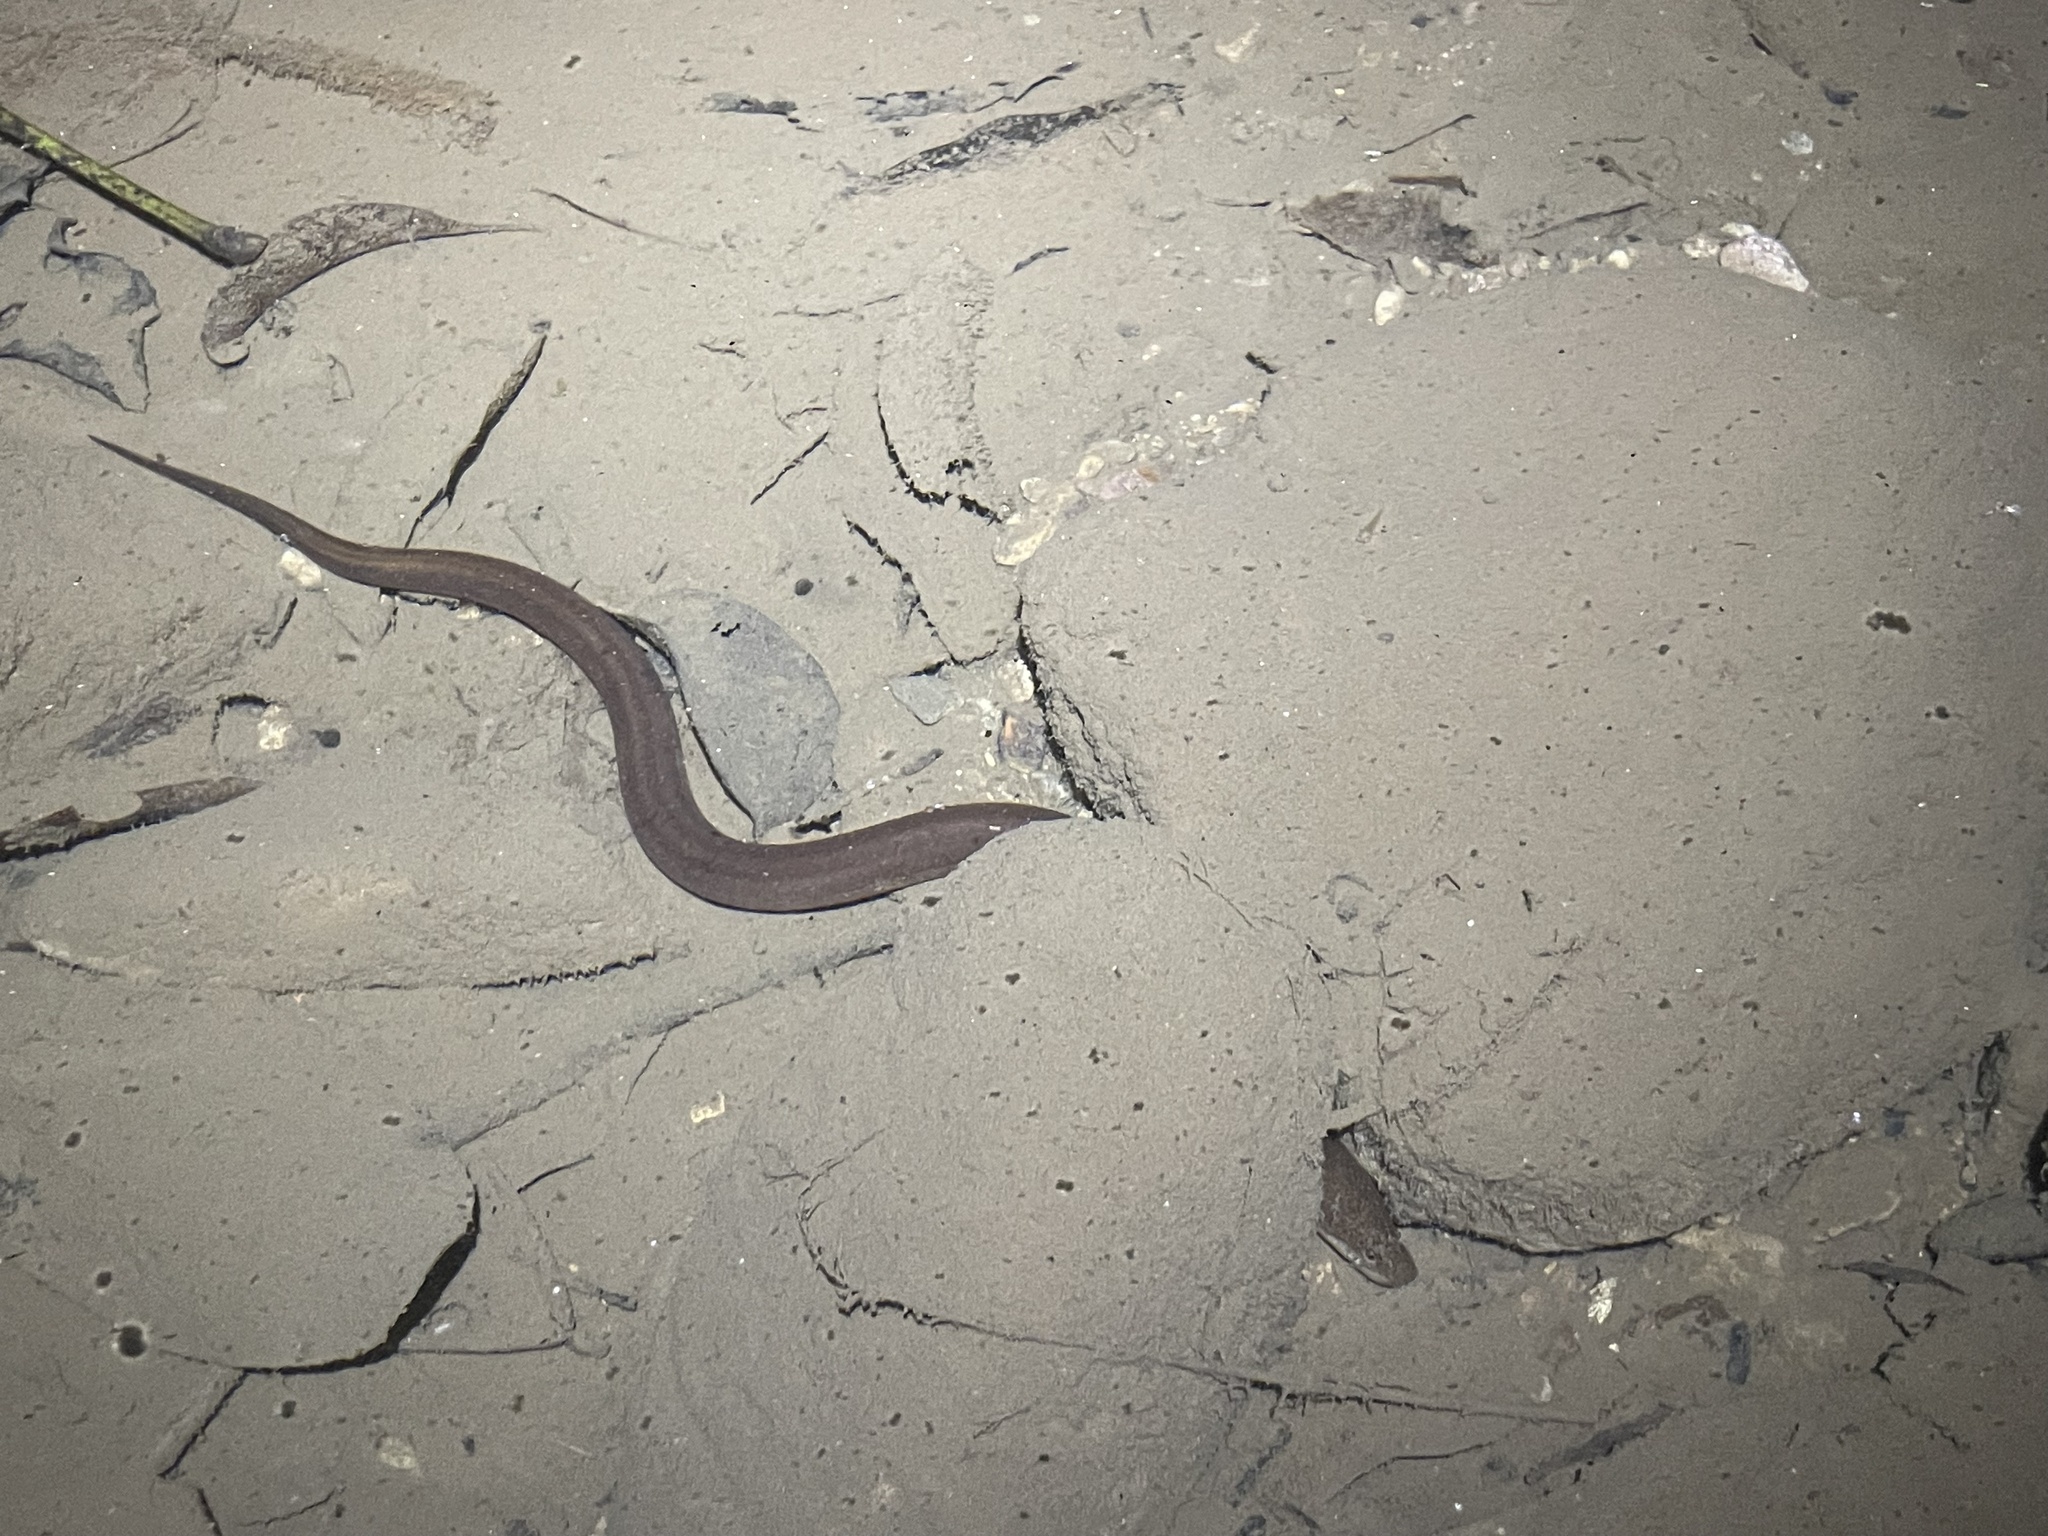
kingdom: Animalia
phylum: Chordata
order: Synbranchiformes
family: Synbranchidae
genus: Synbranchus
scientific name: Synbranchus marmoratus
